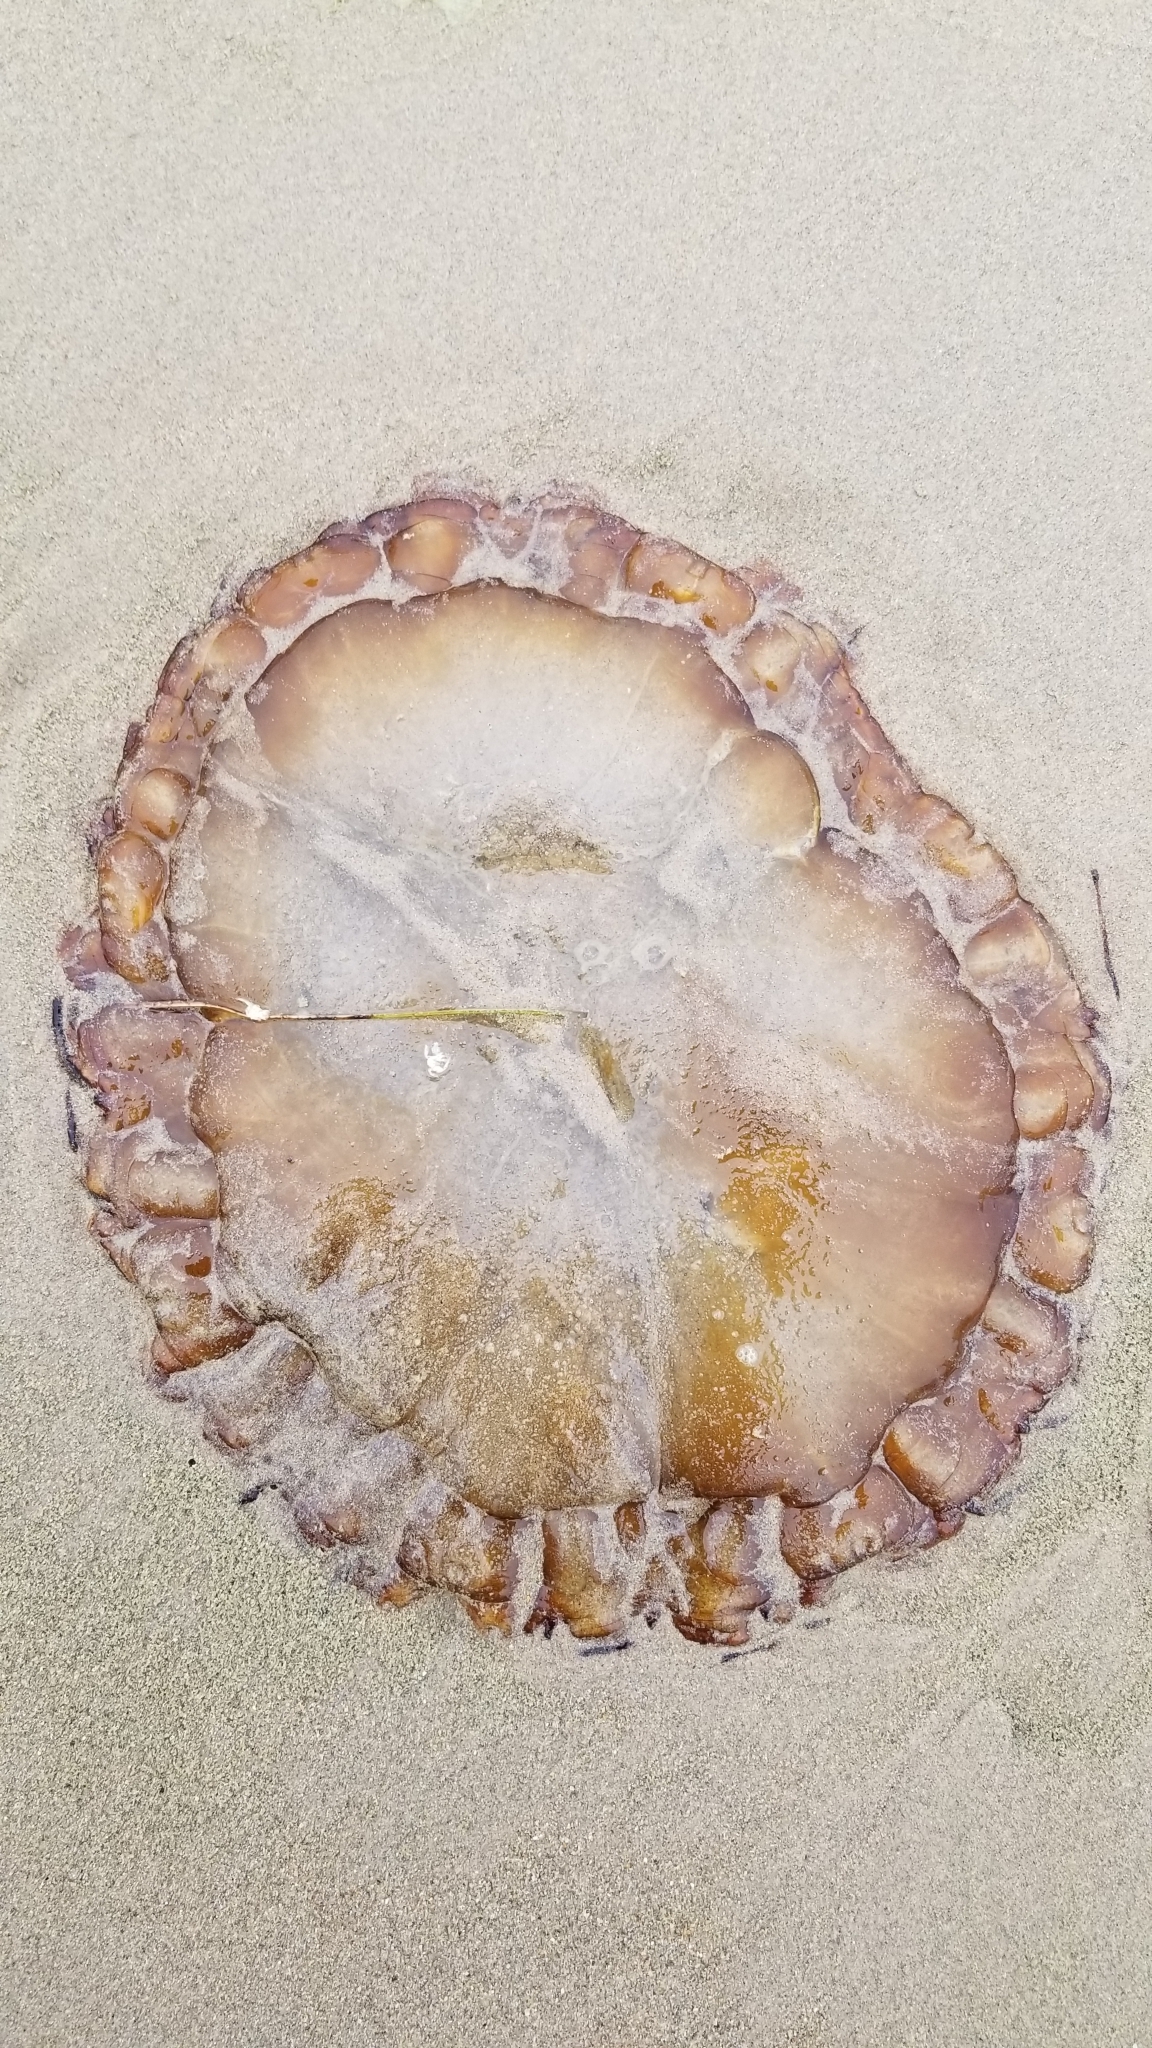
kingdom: Animalia
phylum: Cnidaria
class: Scyphozoa
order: Semaeostomeae
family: Pelagiidae
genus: Chrysaora
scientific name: Chrysaora fuscescens
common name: Sea nettle
